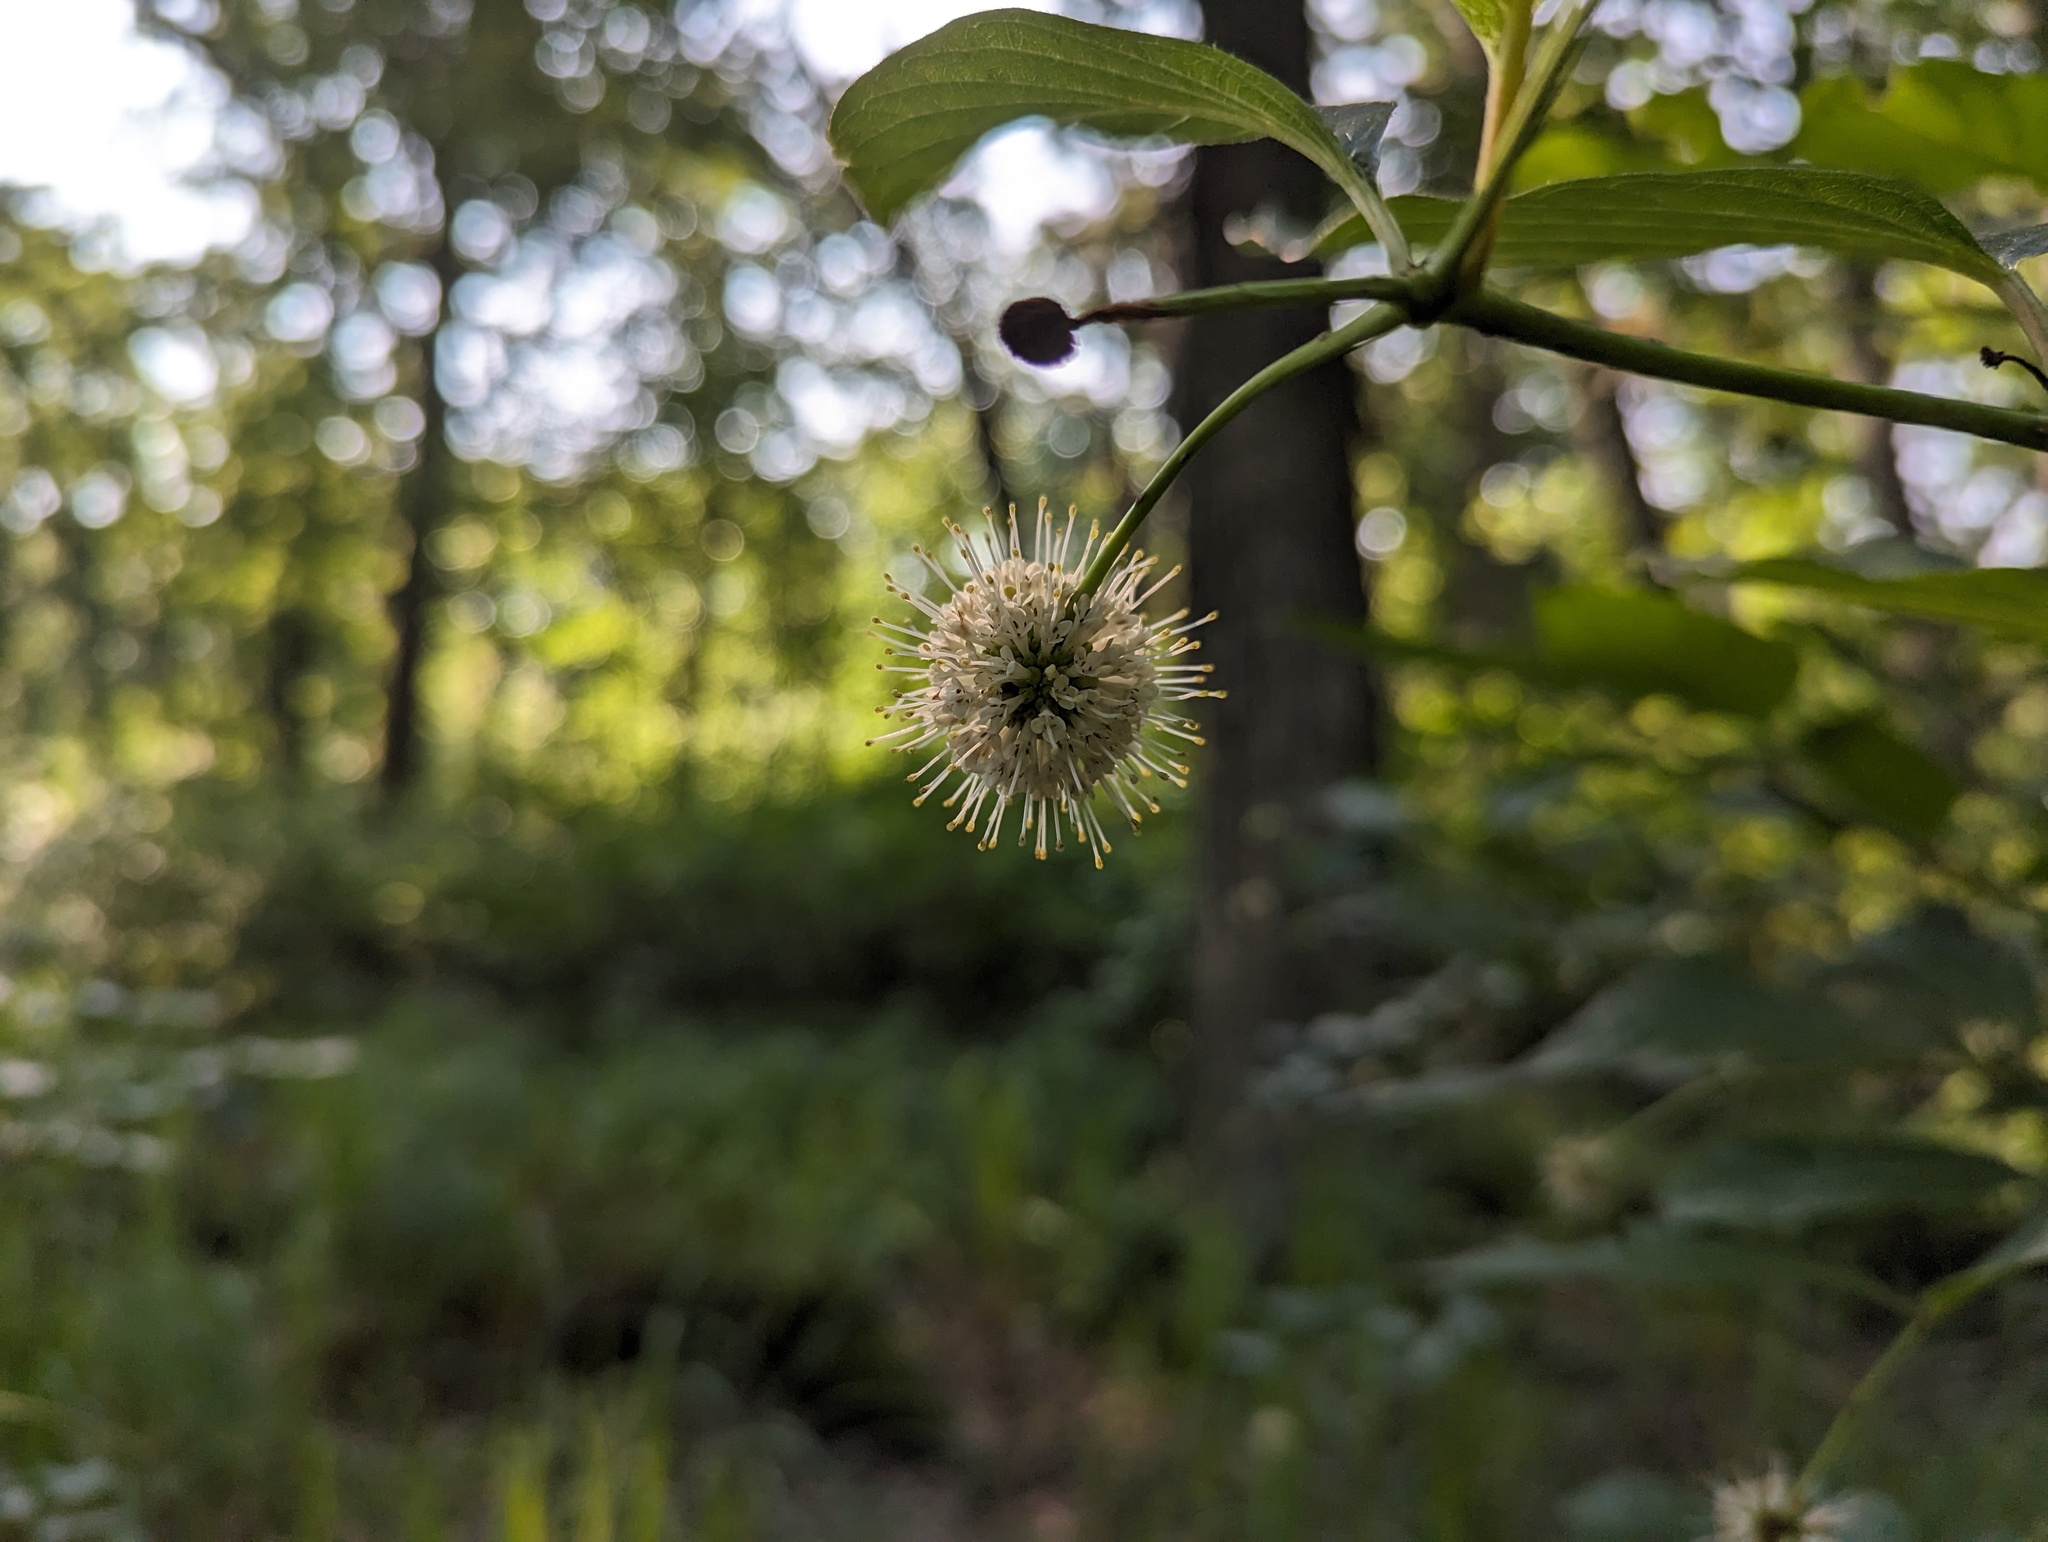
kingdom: Plantae
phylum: Tracheophyta
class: Magnoliopsida
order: Gentianales
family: Rubiaceae
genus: Cephalanthus
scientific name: Cephalanthus occidentalis
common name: Button-willow
